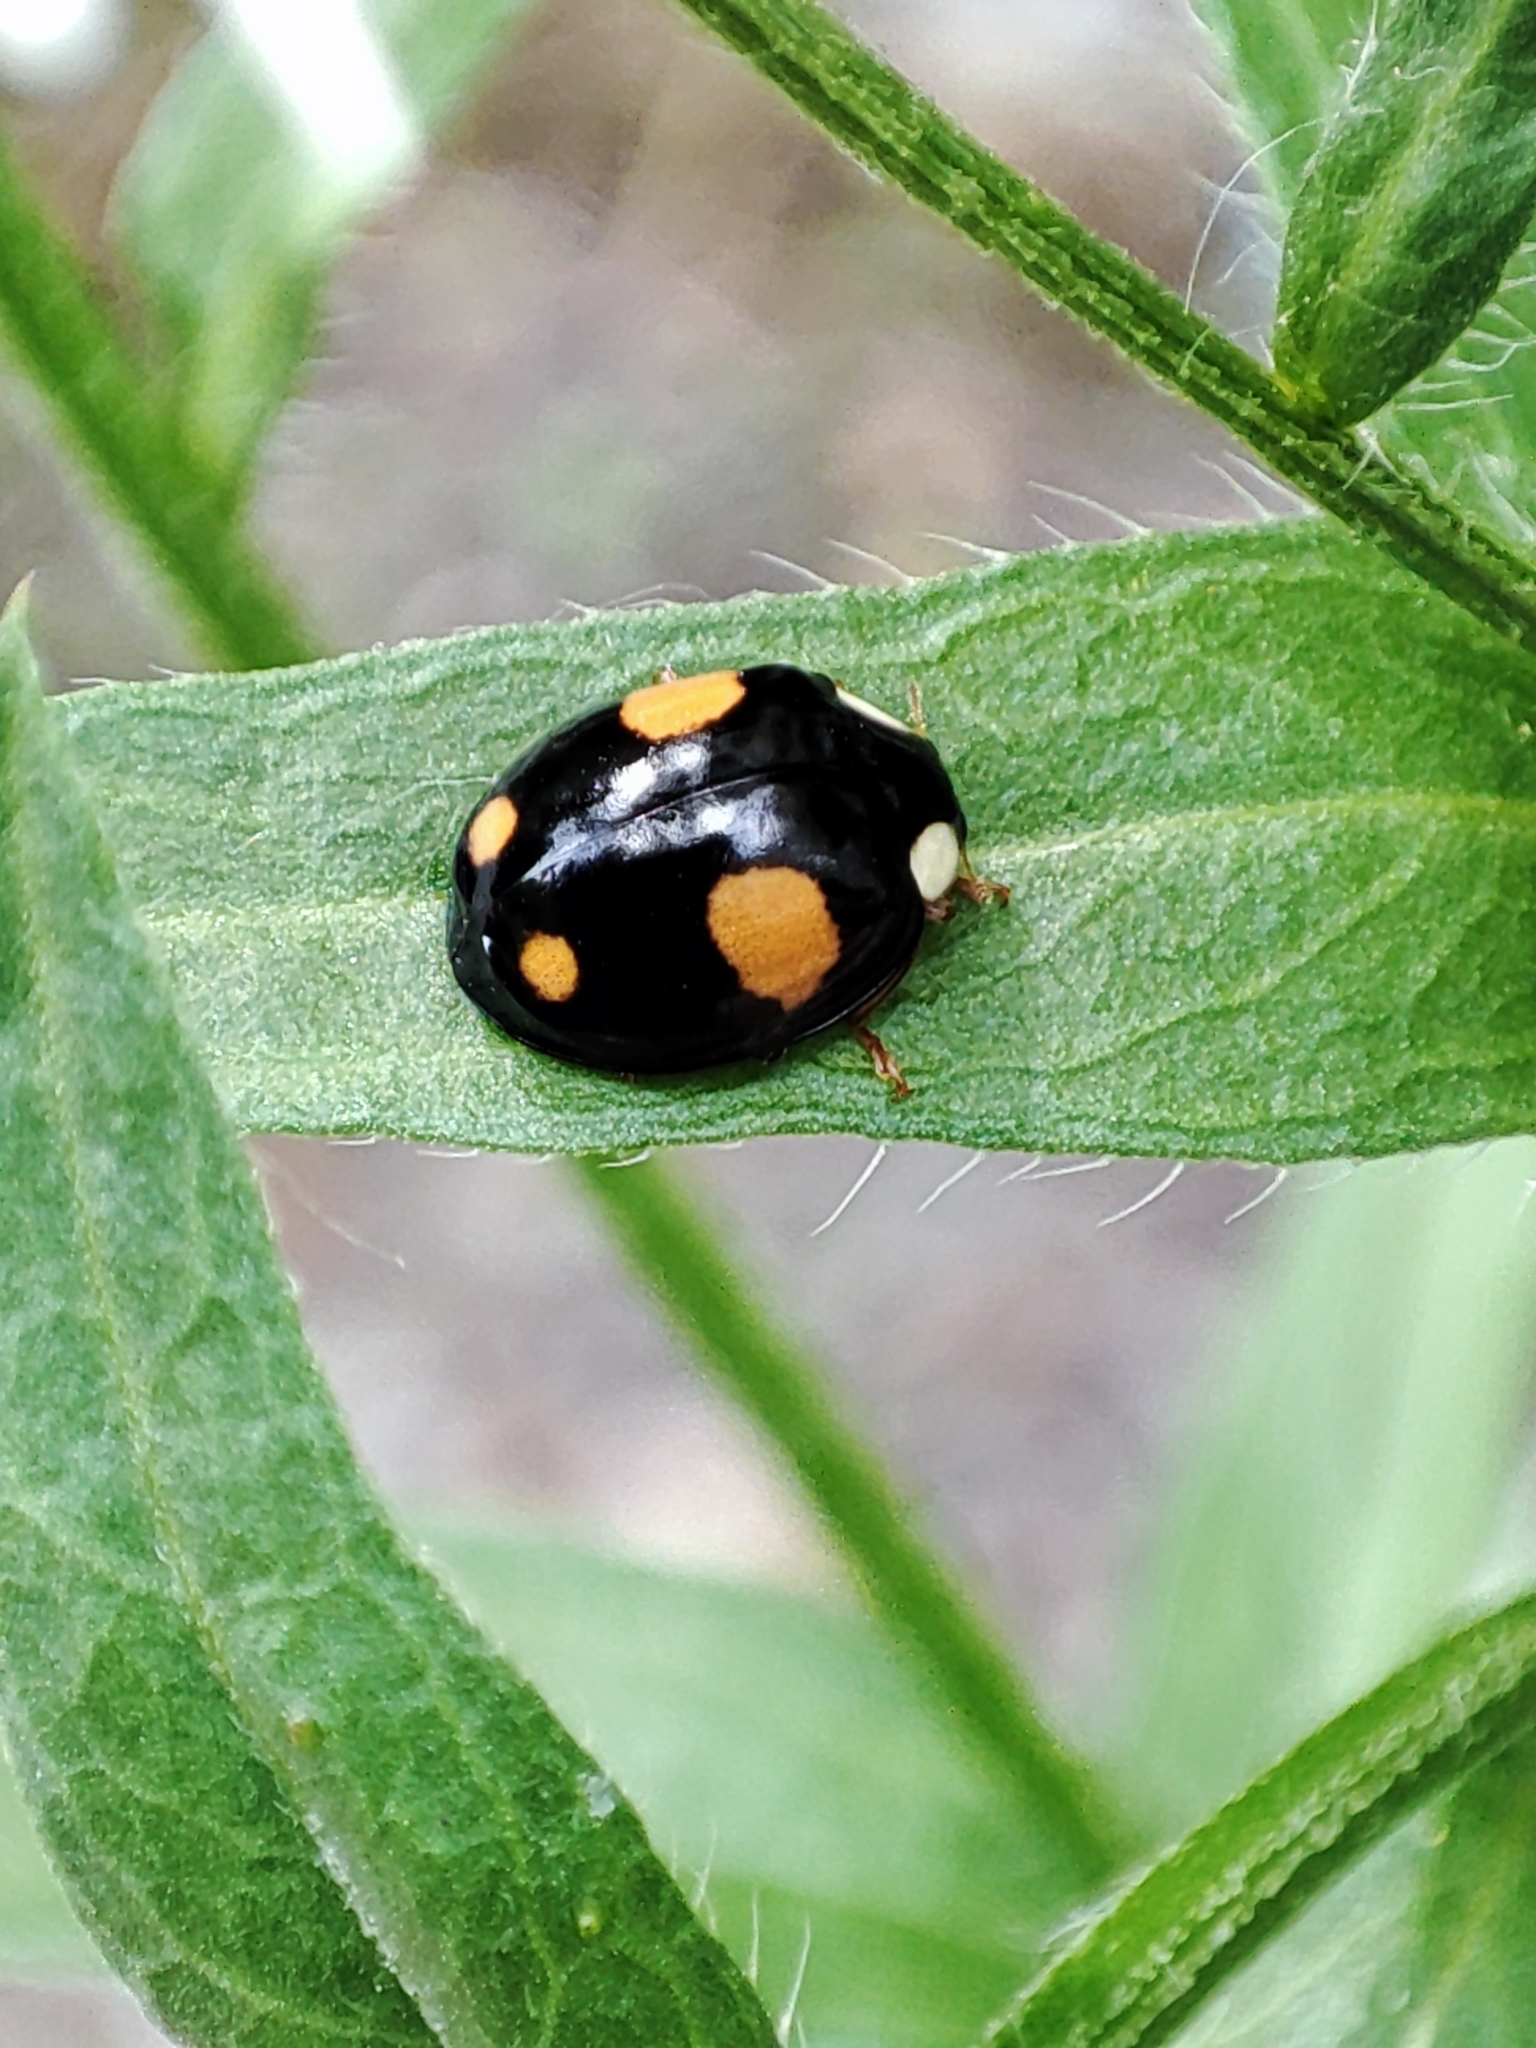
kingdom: Animalia
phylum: Arthropoda
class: Insecta
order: Coleoptera
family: Coccinellidae
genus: Harmonia
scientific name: Harmonia axyridis
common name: Harlequin ladybird
